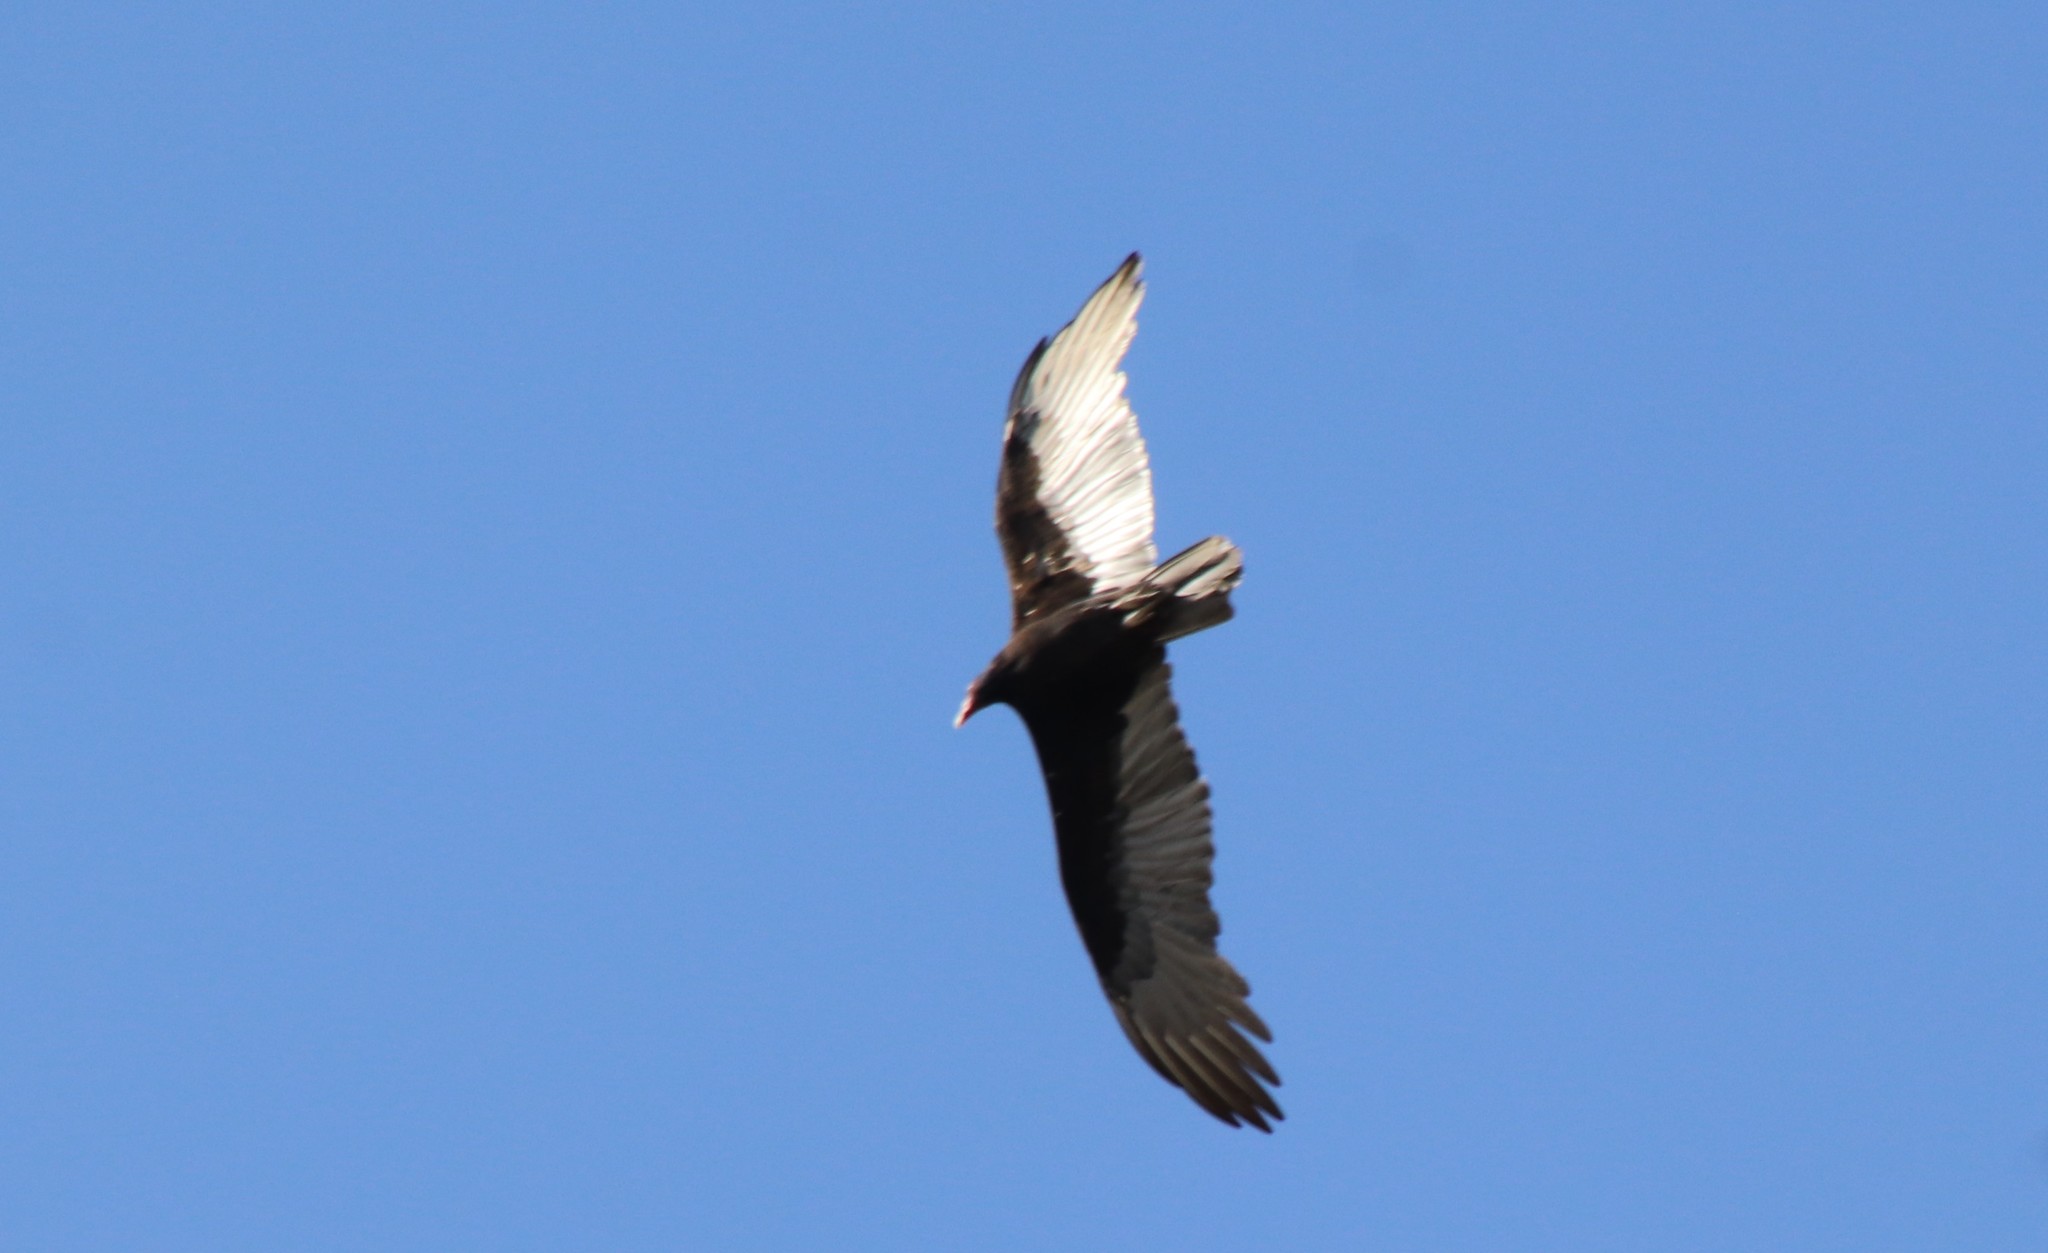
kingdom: Animalia
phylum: Chordata
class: Aves
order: Accipitriformes
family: Cathartidae
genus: Cathartes
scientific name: Cathartes aura
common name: Turkey vulture
